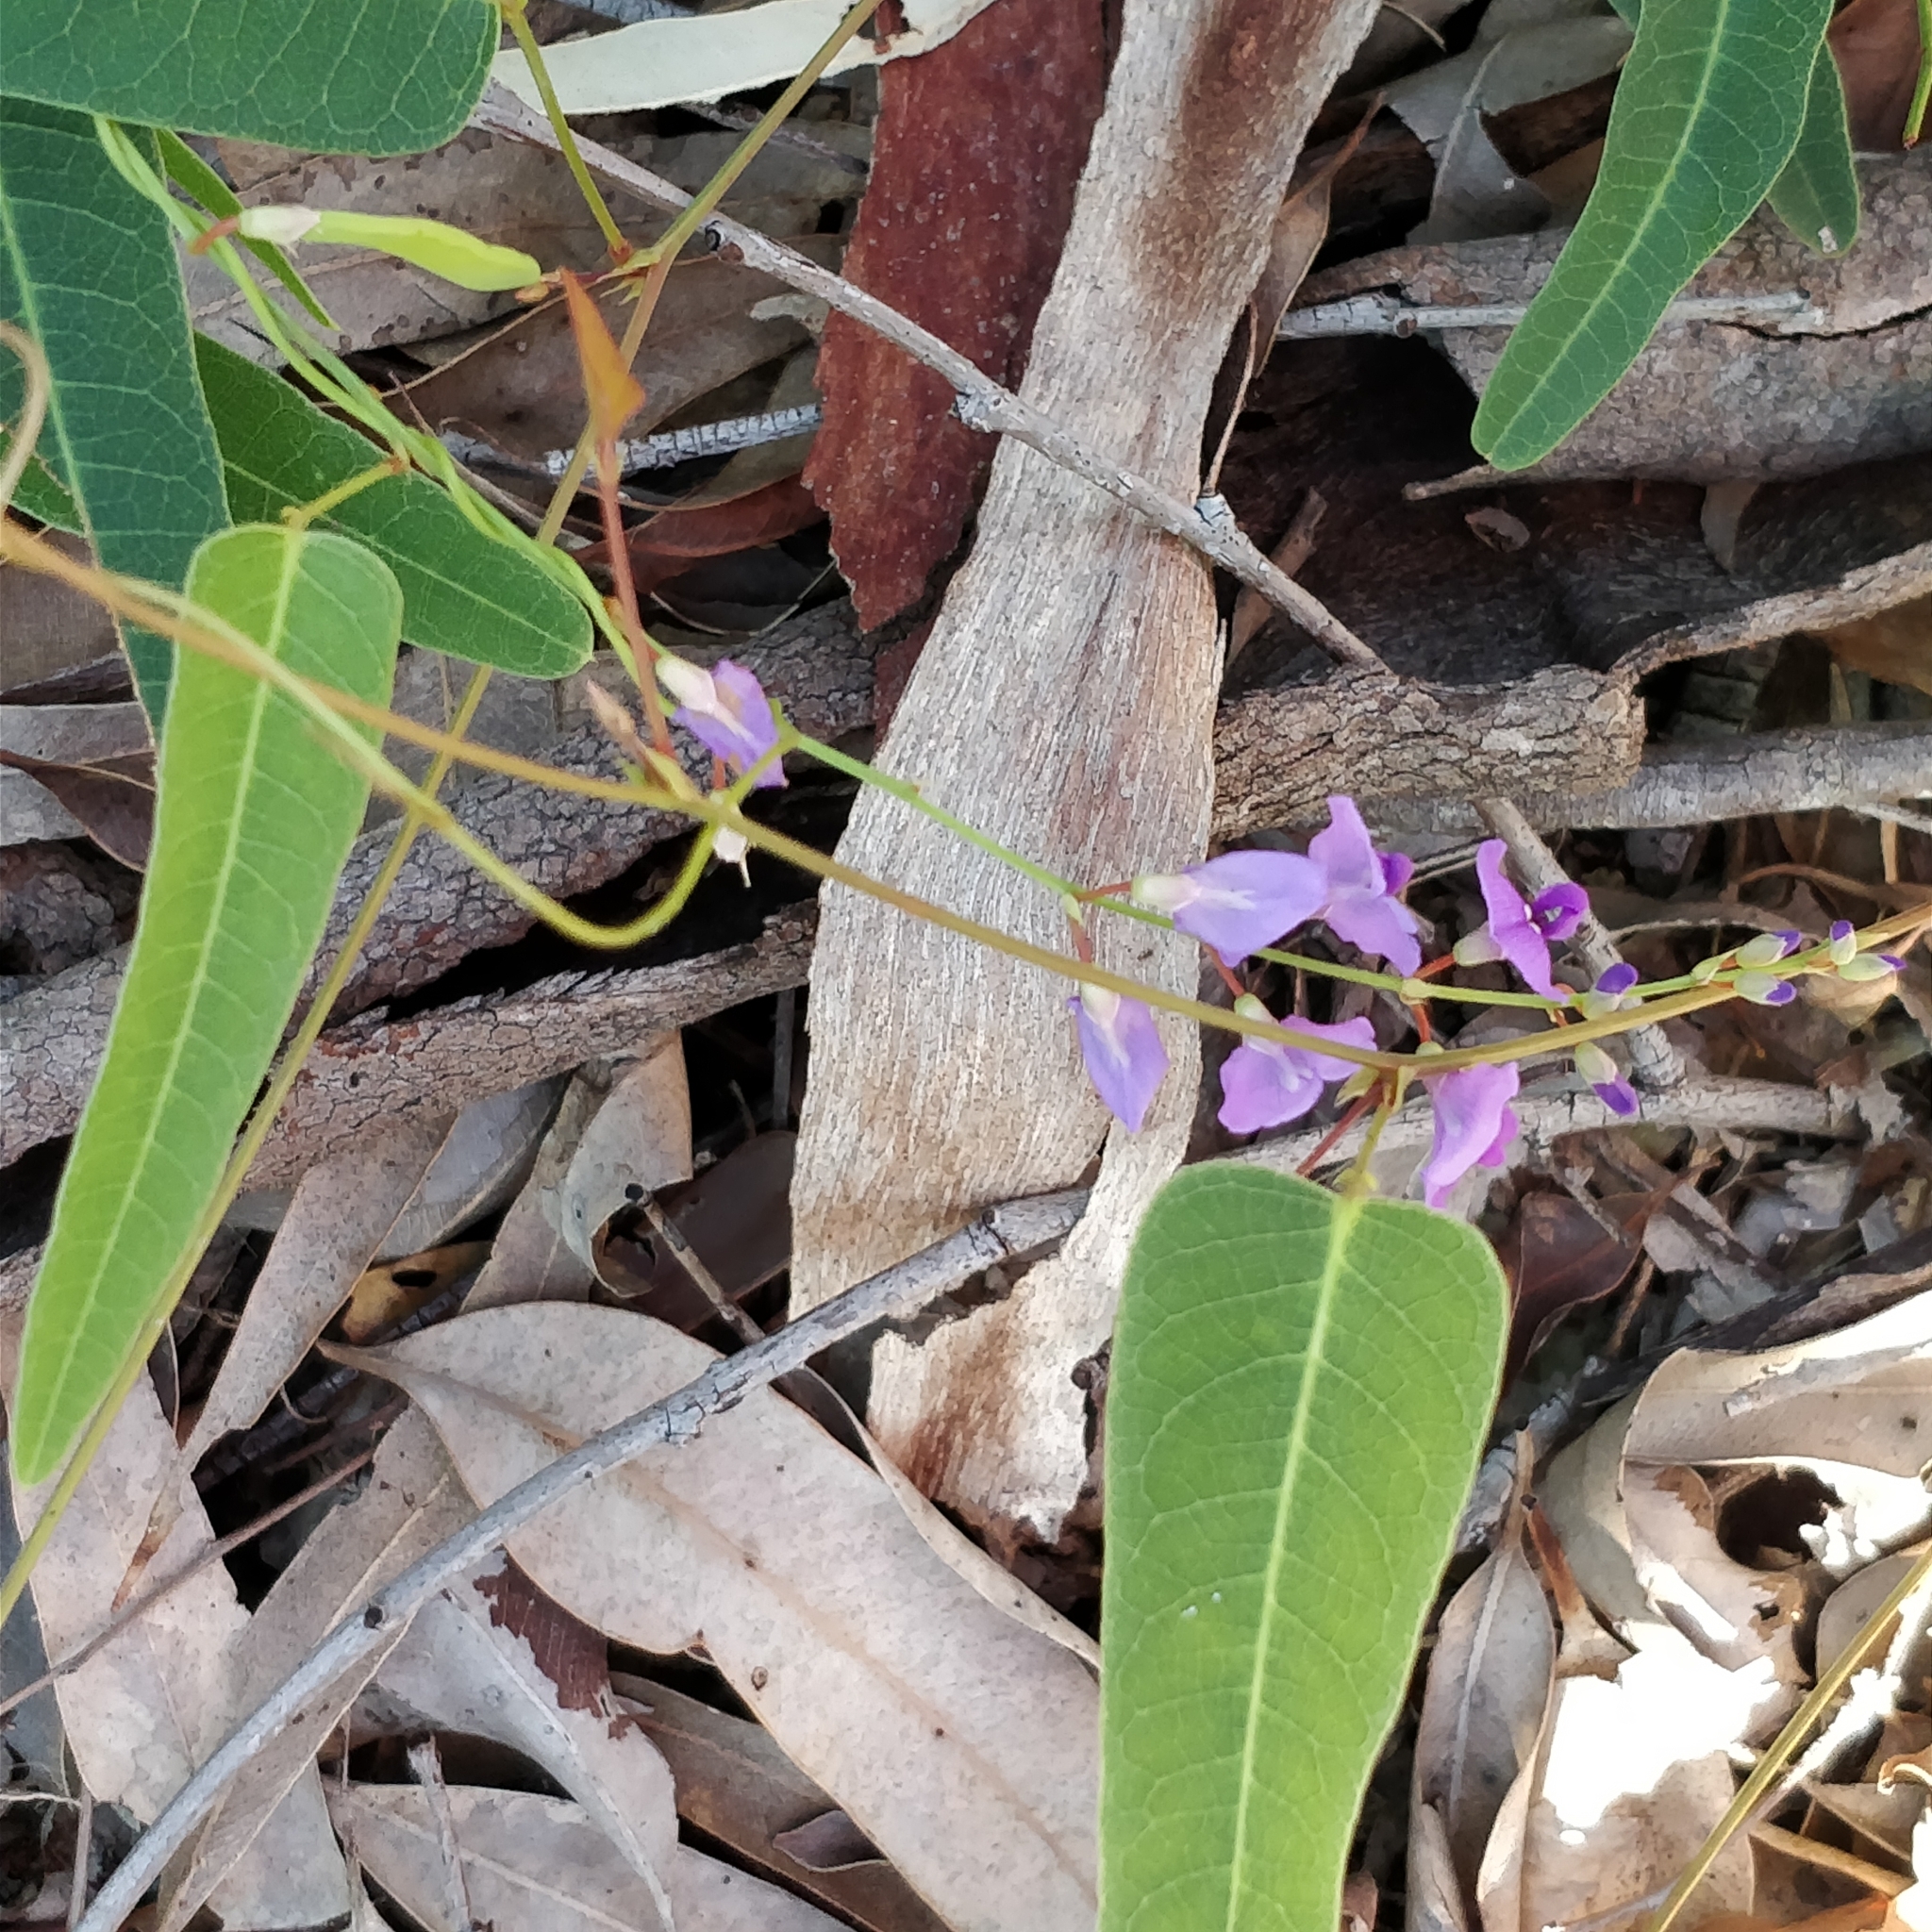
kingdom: Plantae
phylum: Tracheophyta
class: Magnoliopsida
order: Fabales
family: Fabaceae
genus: Hardenbergia
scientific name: Hardenbergia violacea
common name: Coral-pea
